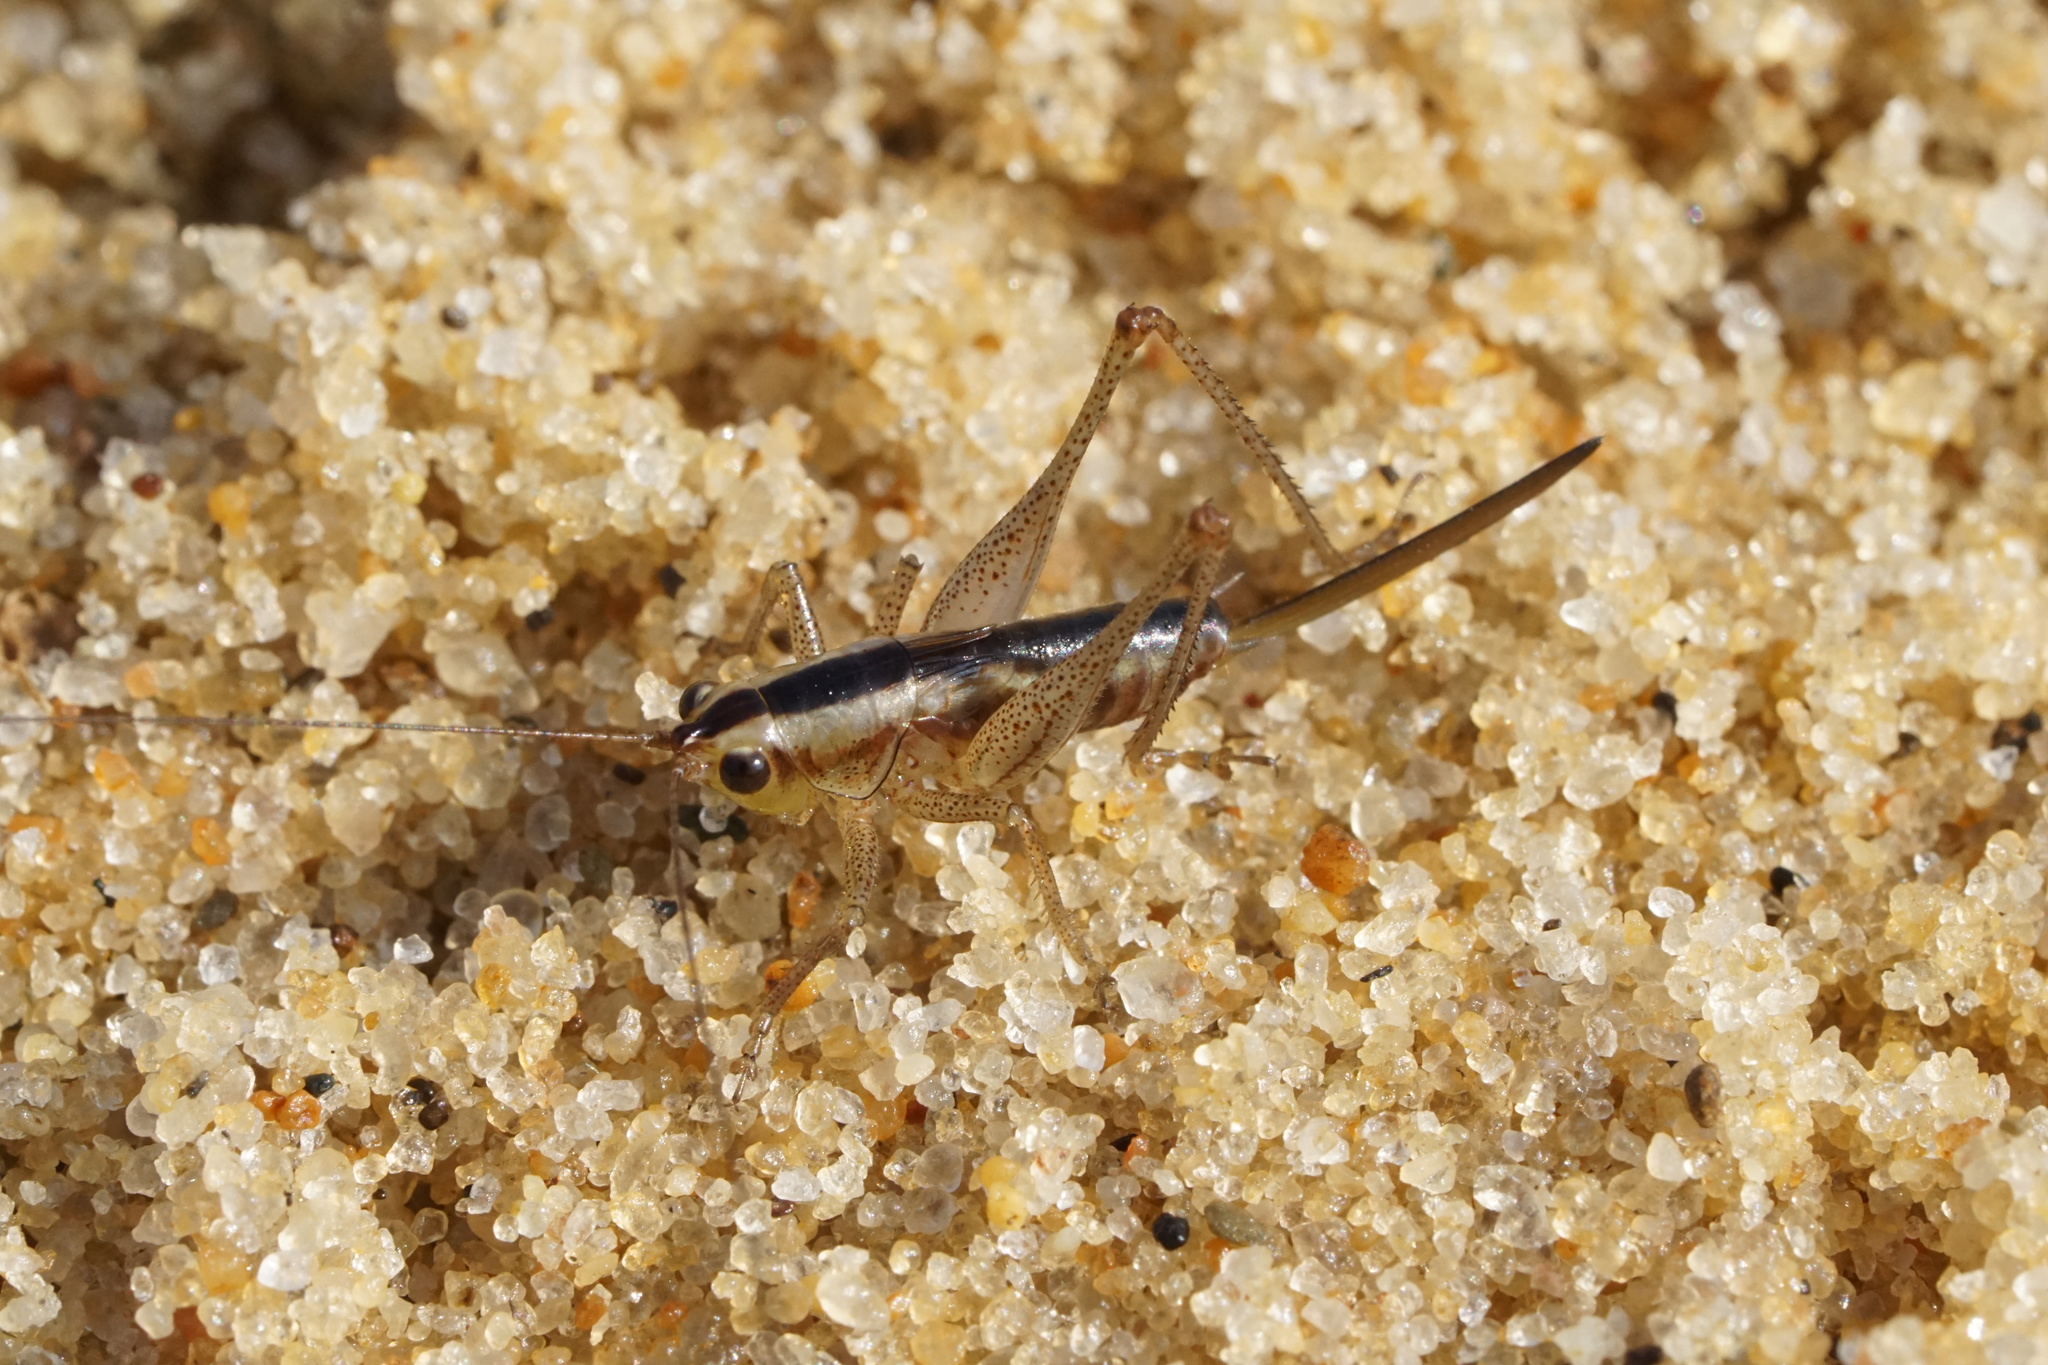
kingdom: Animalia
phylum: Arthropoda
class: Insecta
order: Orthoptera
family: Tettigoniidae
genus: Conocephalus
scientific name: Conocephalus spartinae
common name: Salt marsh meadow katydid
